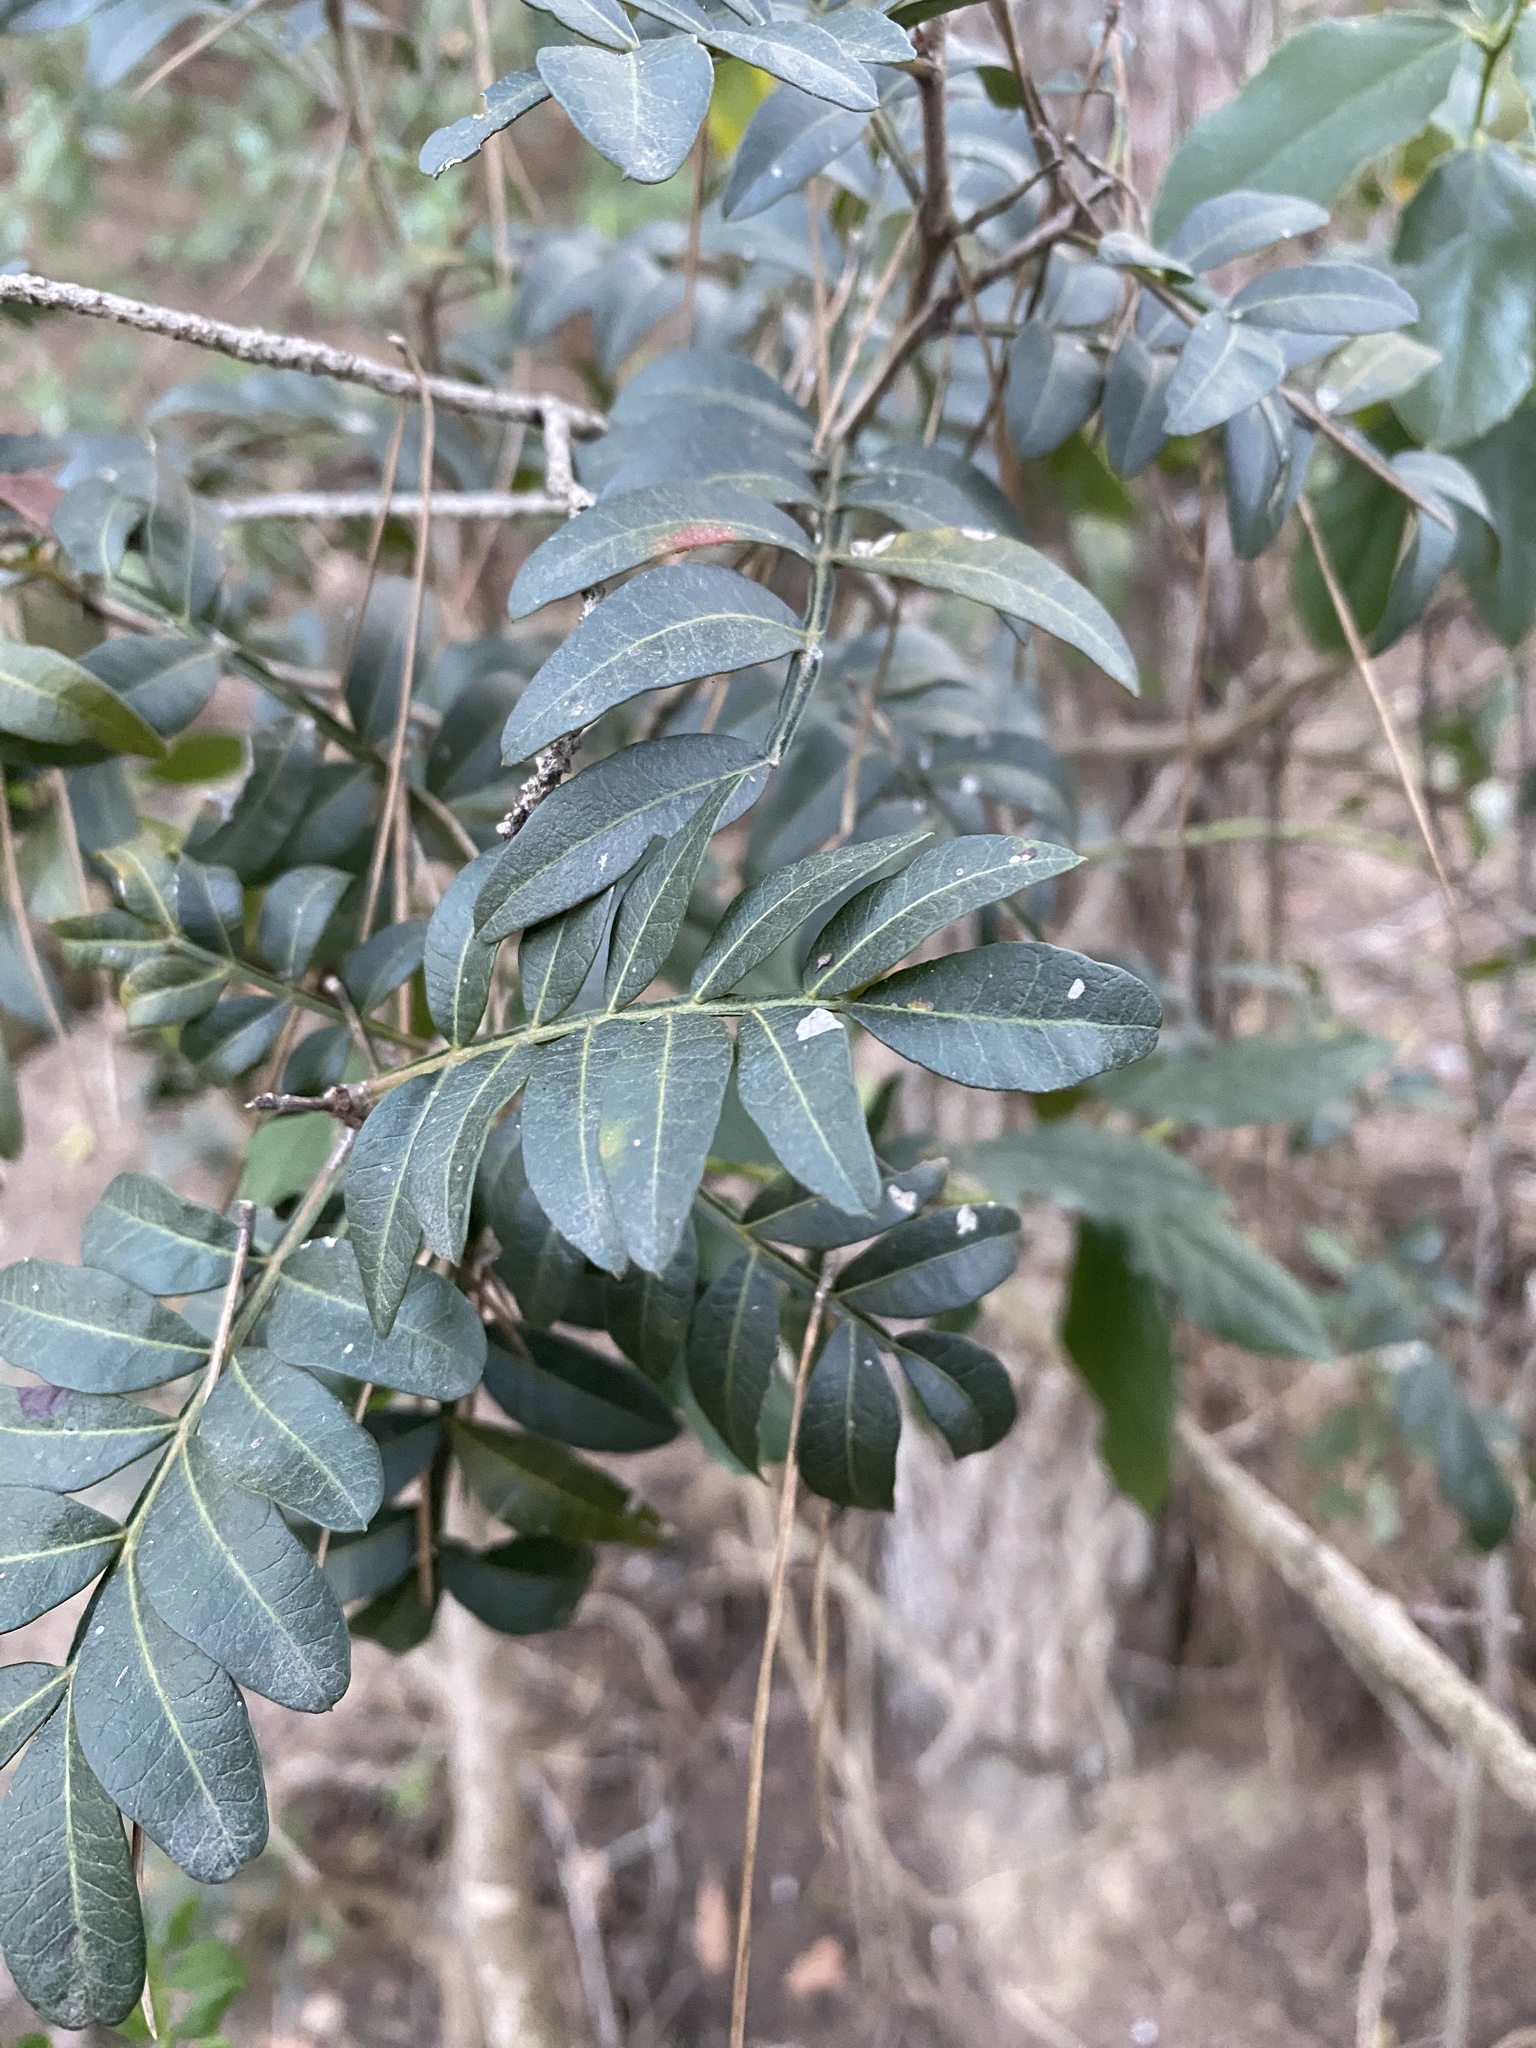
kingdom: Plantae
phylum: Tracheophyta
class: Magnoliopsida
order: Sapindales
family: Anacardiaceae
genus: Pistacia
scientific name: Pistacia lentiscus
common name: Lentisk
